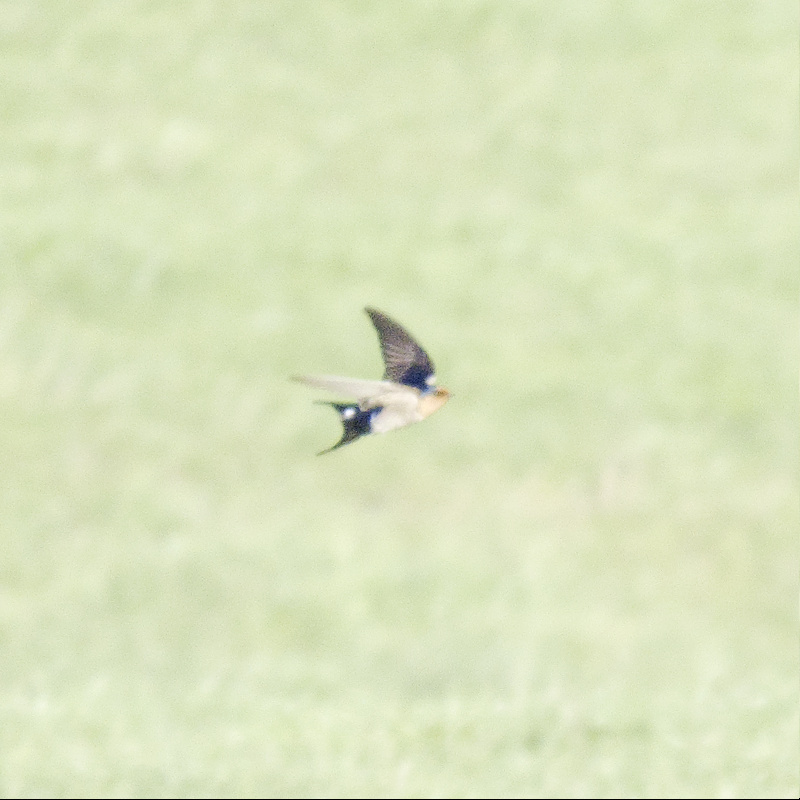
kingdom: Animalia
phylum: Chordata
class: Aves
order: Passeriformes
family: Hirundinidae
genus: Hirundo
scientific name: Hirundo neoxena
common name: Welcome swallow
